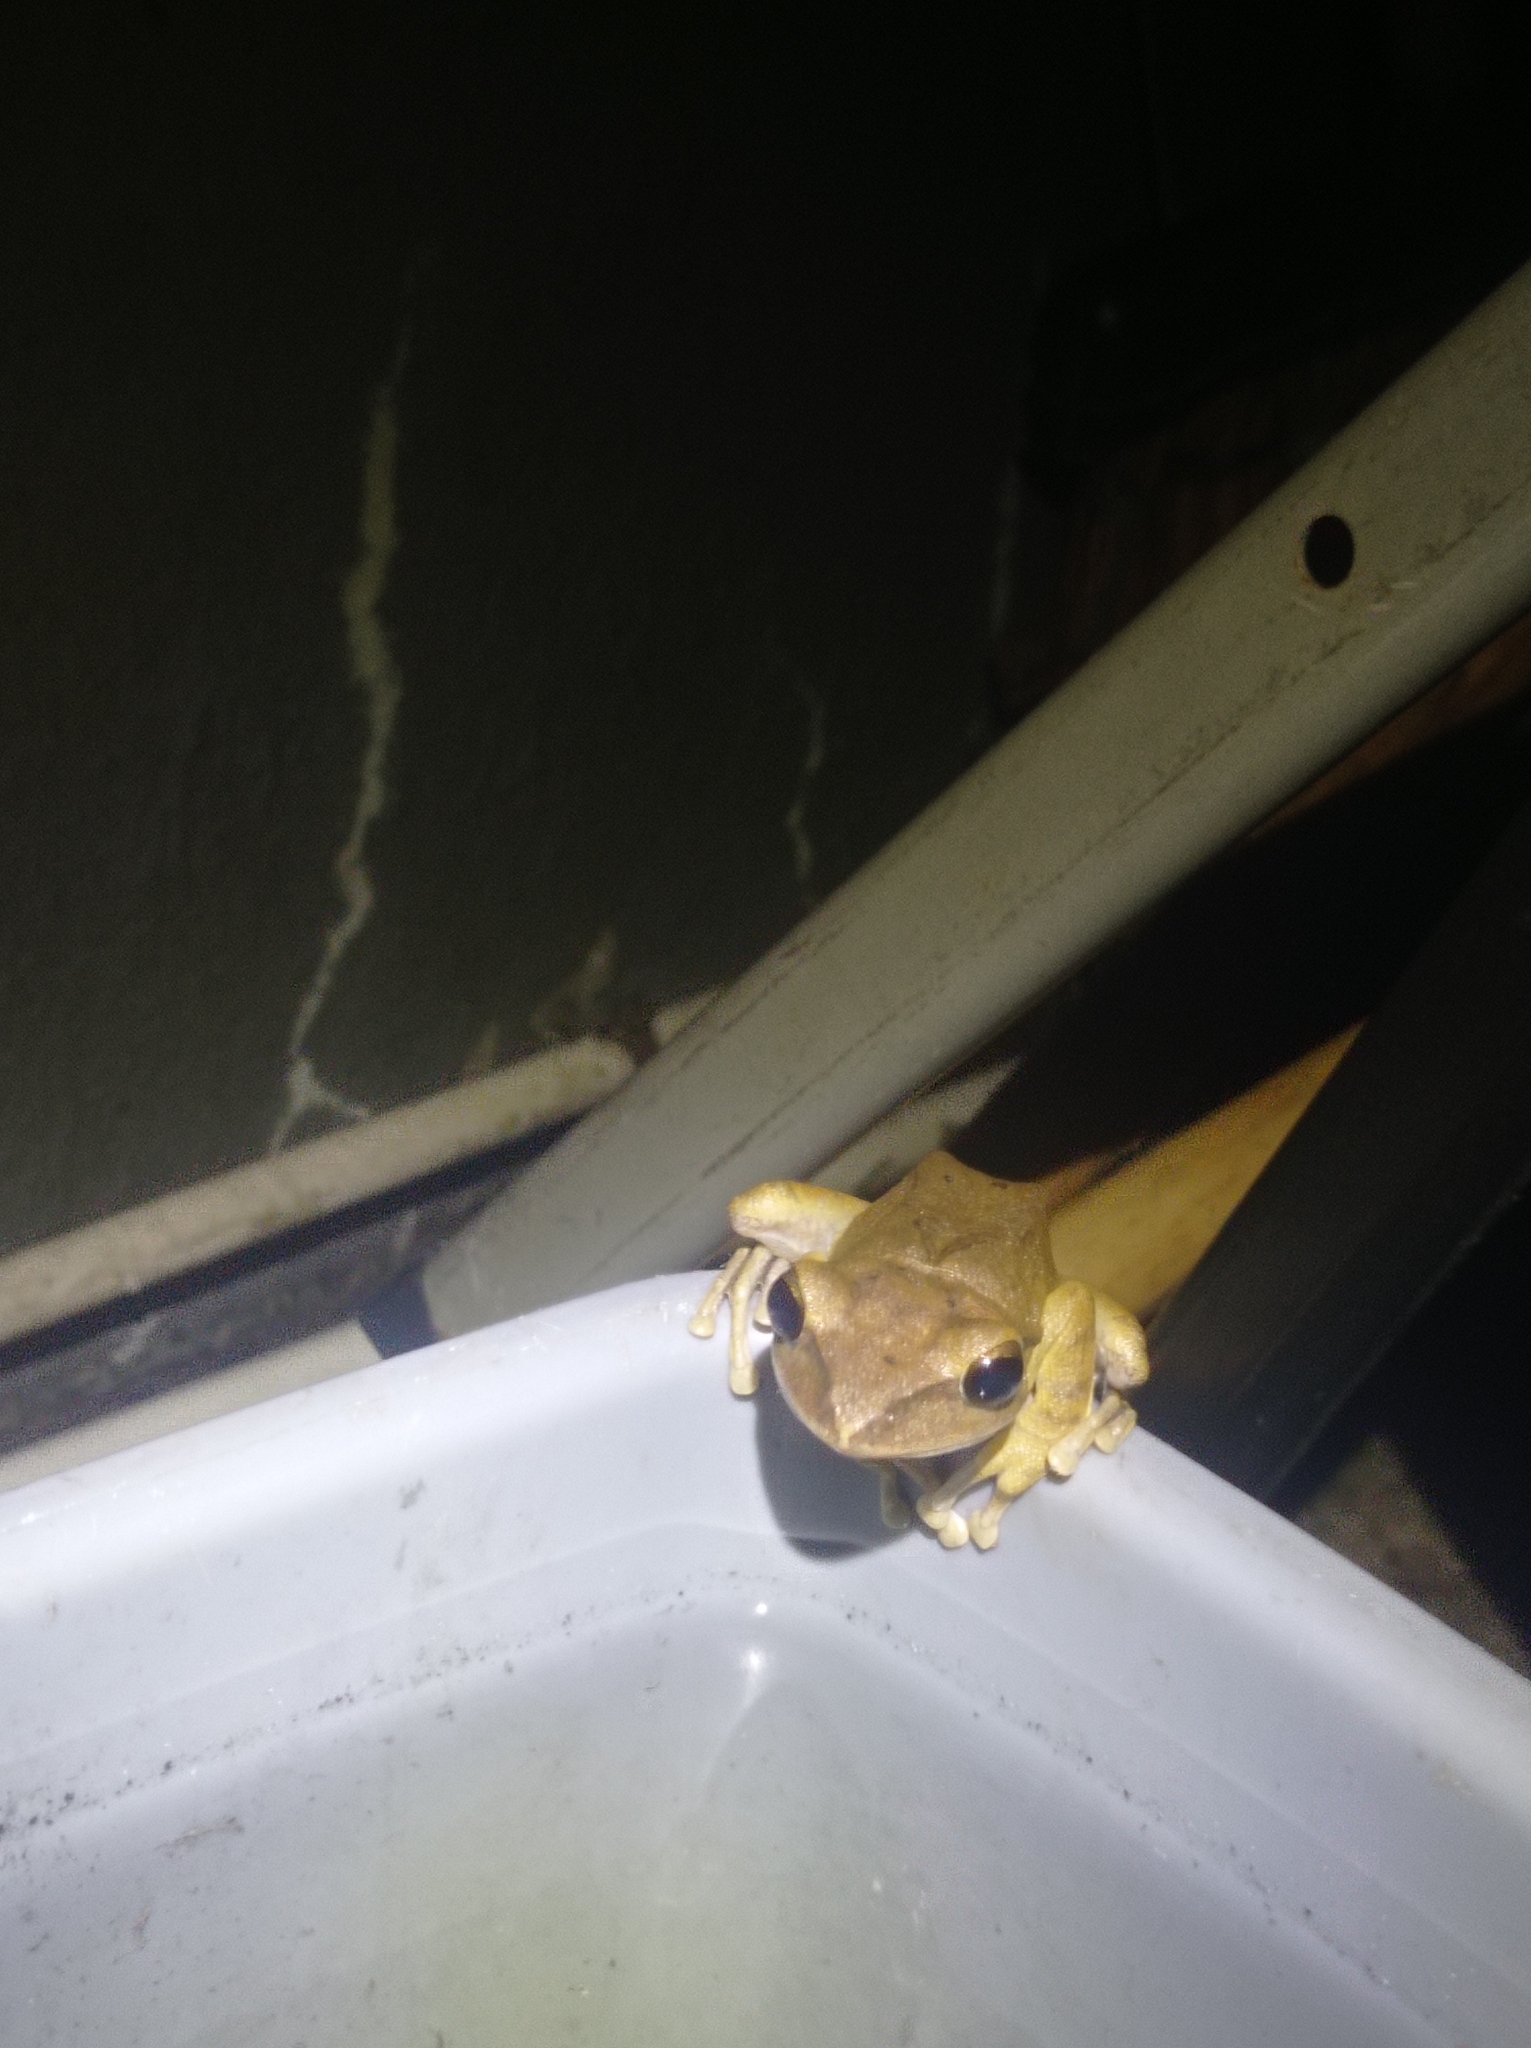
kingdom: Animalia
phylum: Chordata
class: Amphibia
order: Anura
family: Rhacophoridae
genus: Polypedates
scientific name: Polypedates megacephalus
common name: Hong kong whipping frog
